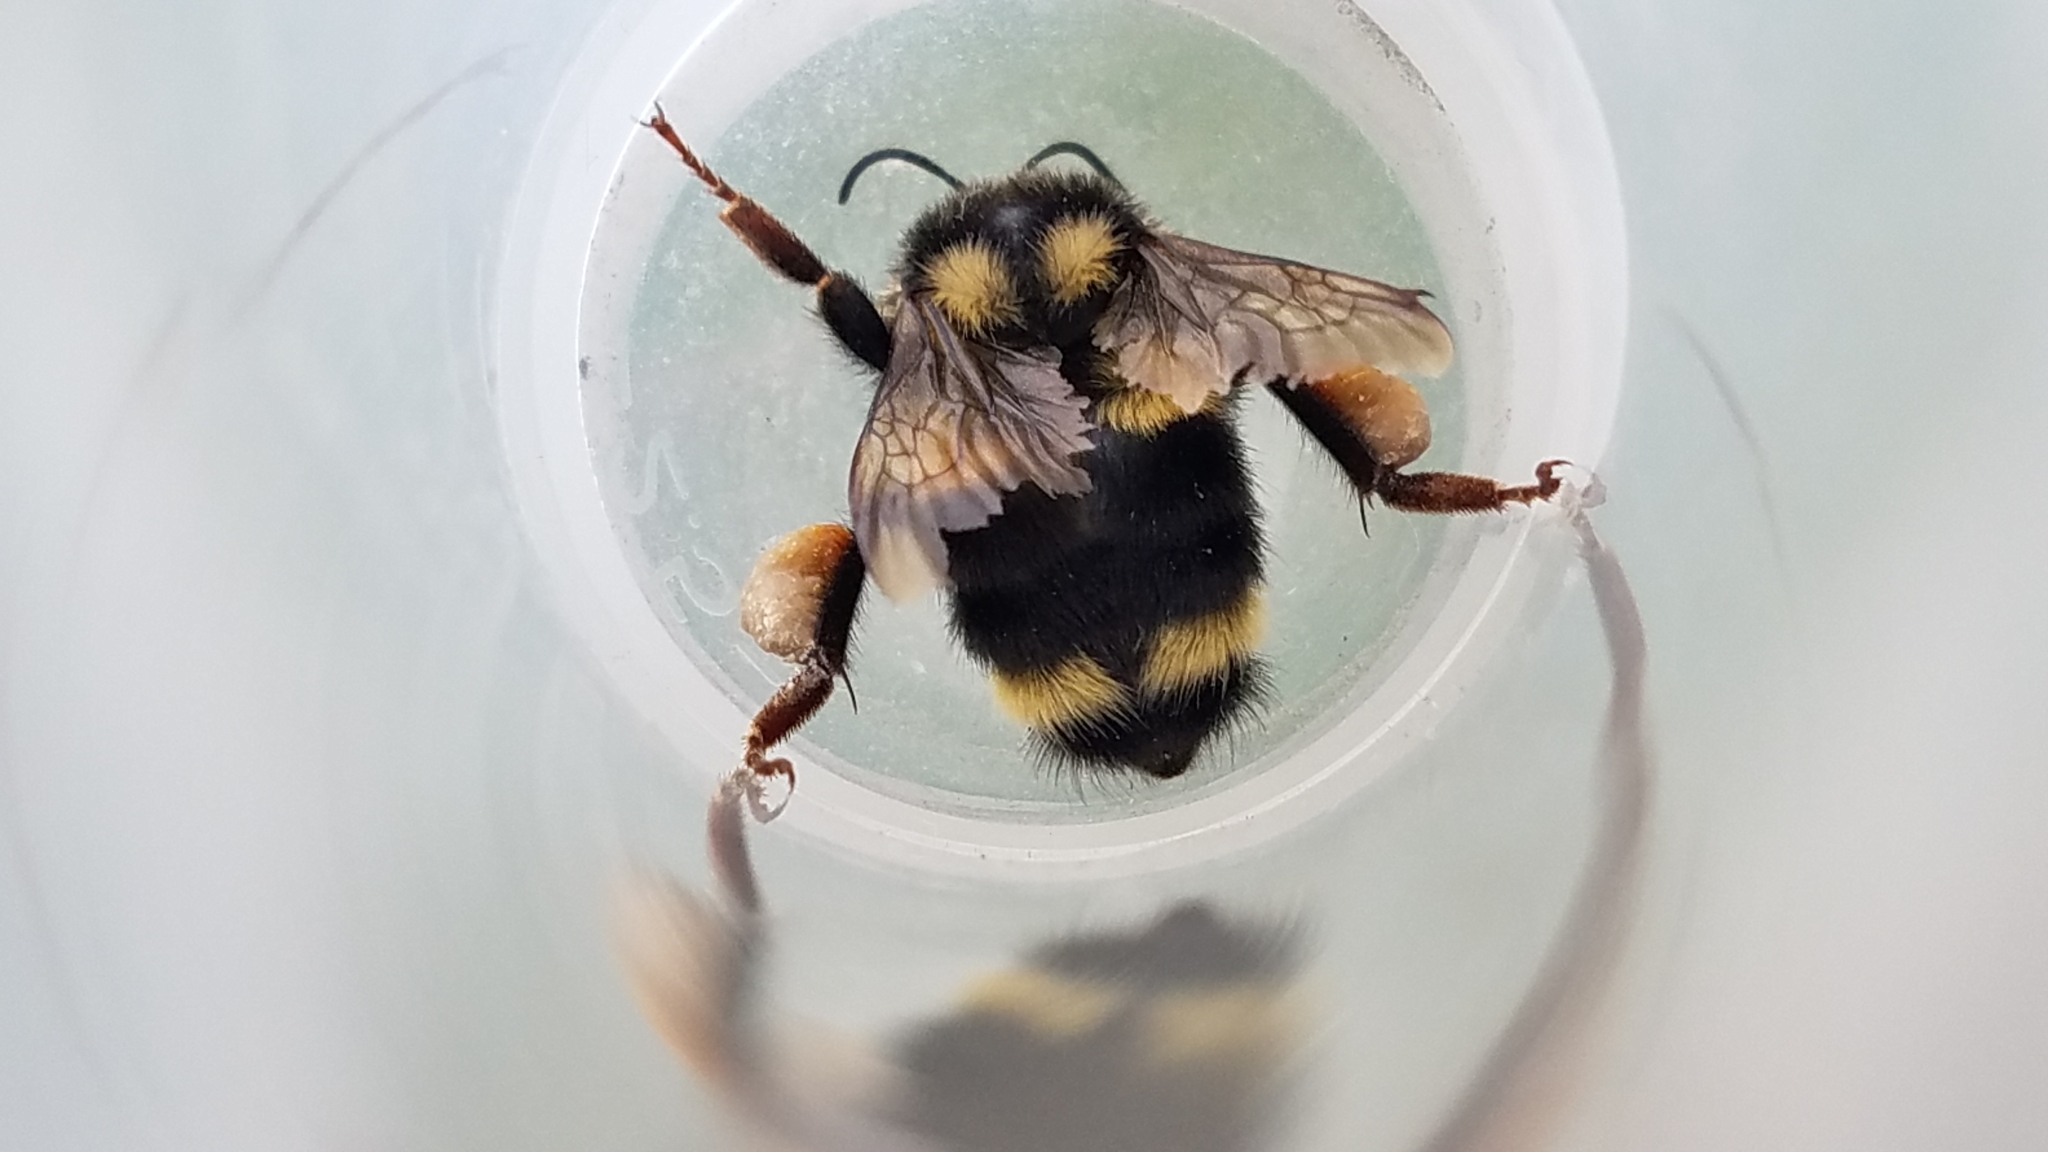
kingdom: Animalia
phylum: Arthropoda
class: Insecta
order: Hymenoptera
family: Apidae
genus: Bombus
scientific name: Bombus vancouverensis
